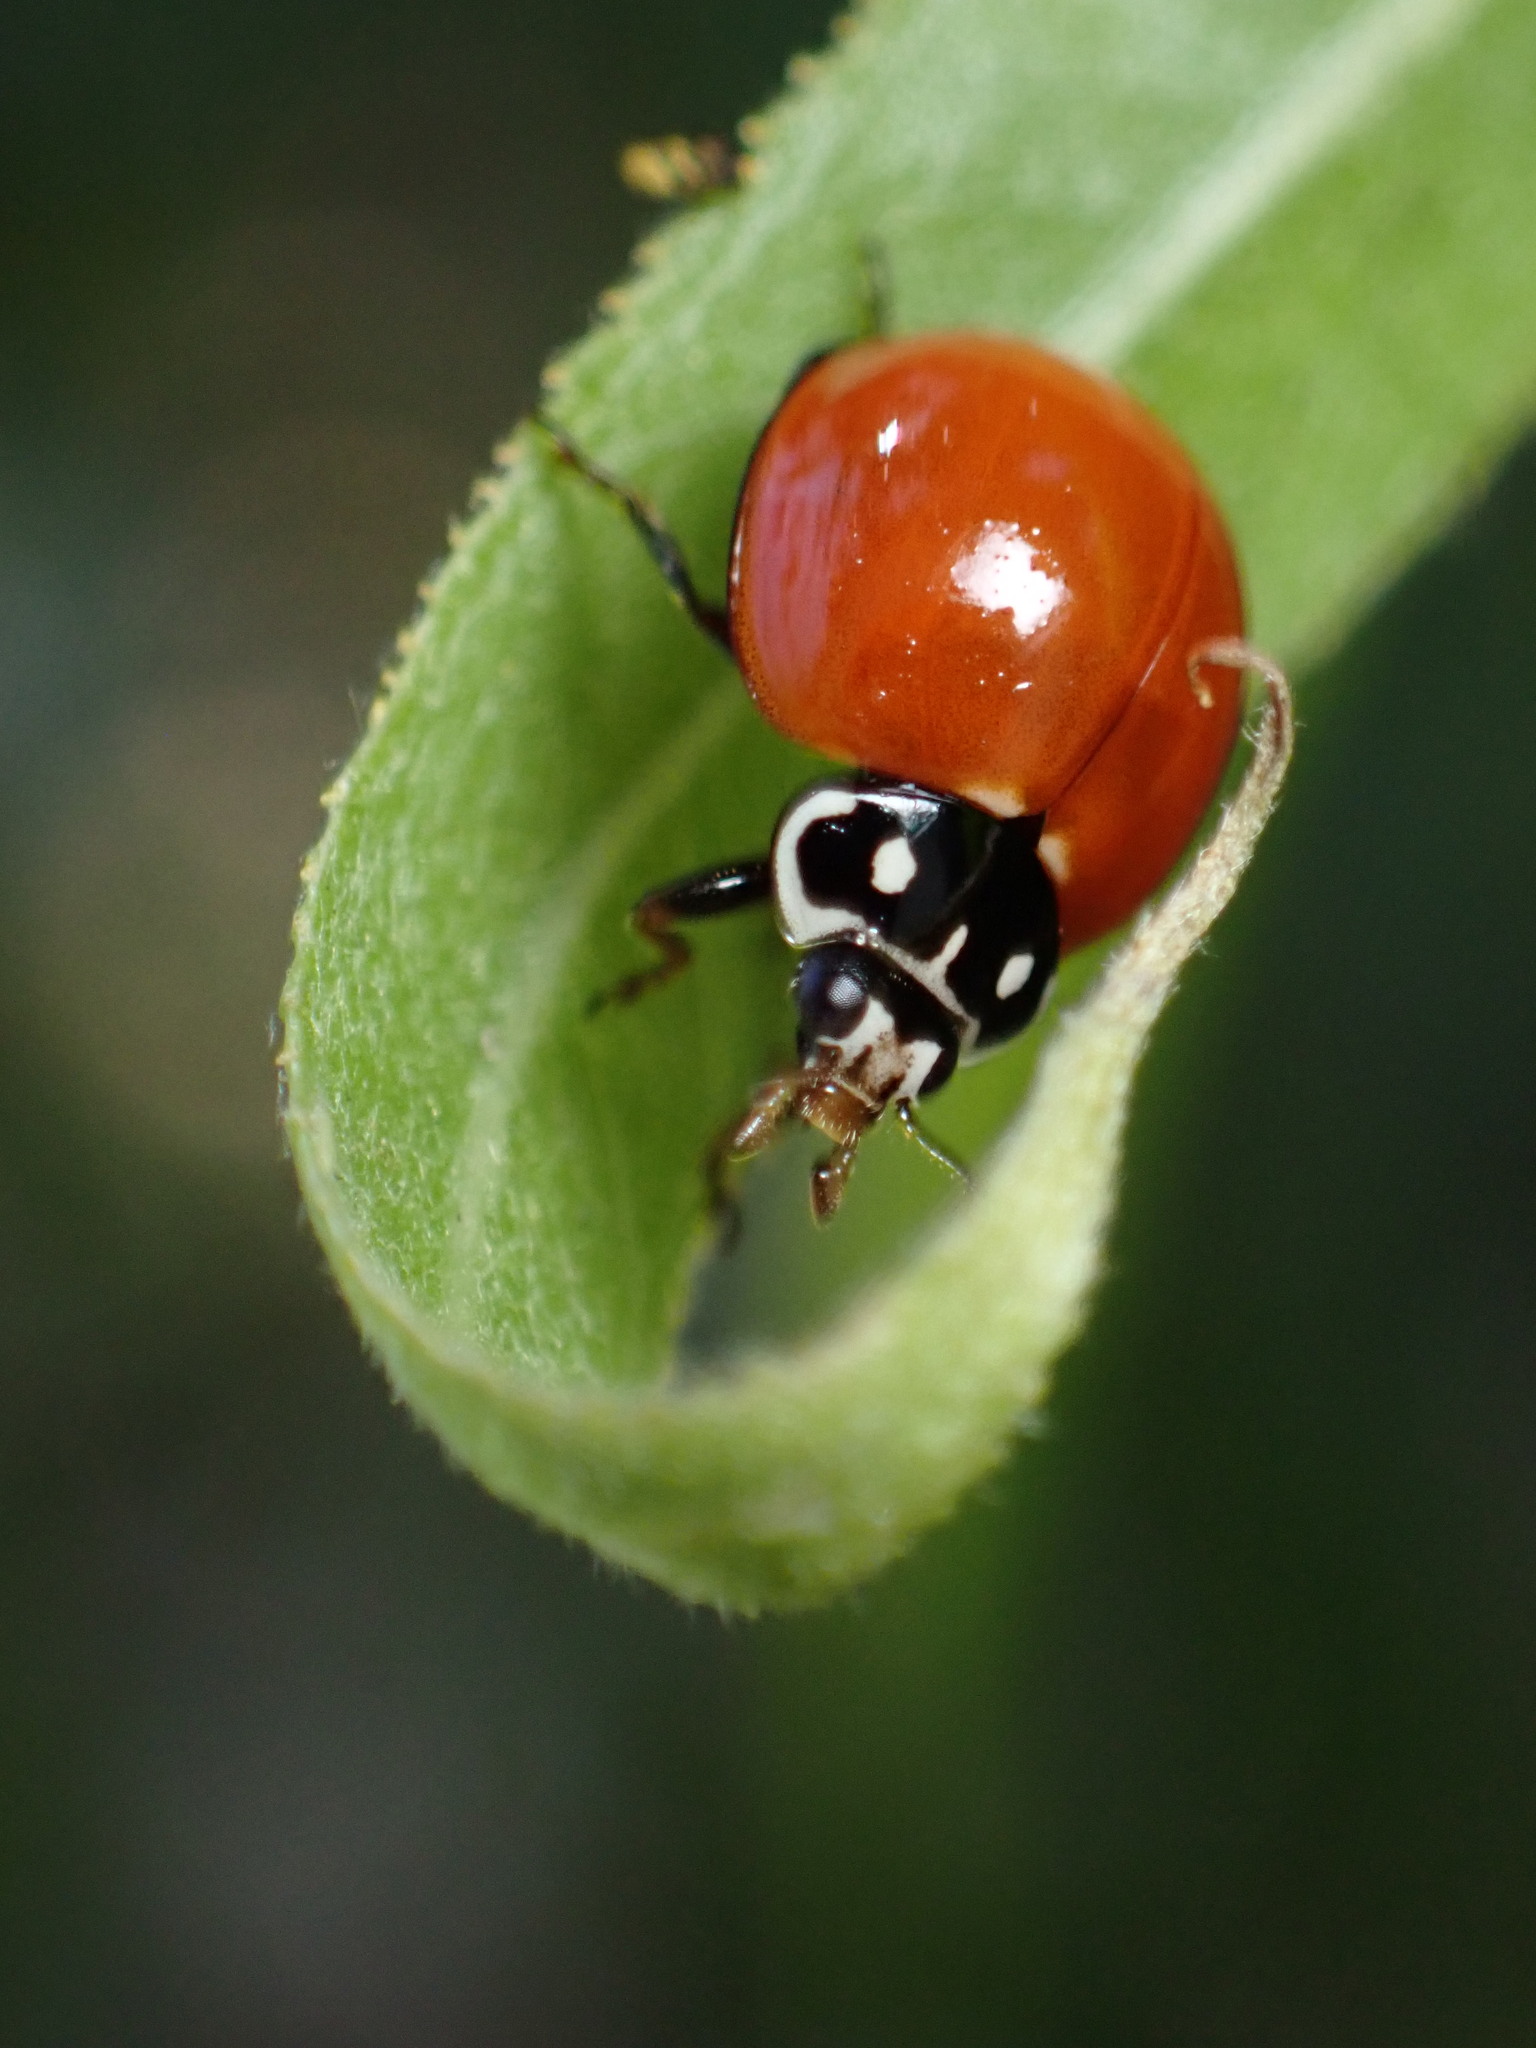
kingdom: Animalia
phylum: Arthropoda
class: Insecta
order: Coleoptera
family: Coccinellidae
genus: Cycloneda
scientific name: Cycloneda sanguinea
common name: Ladybird beetle
